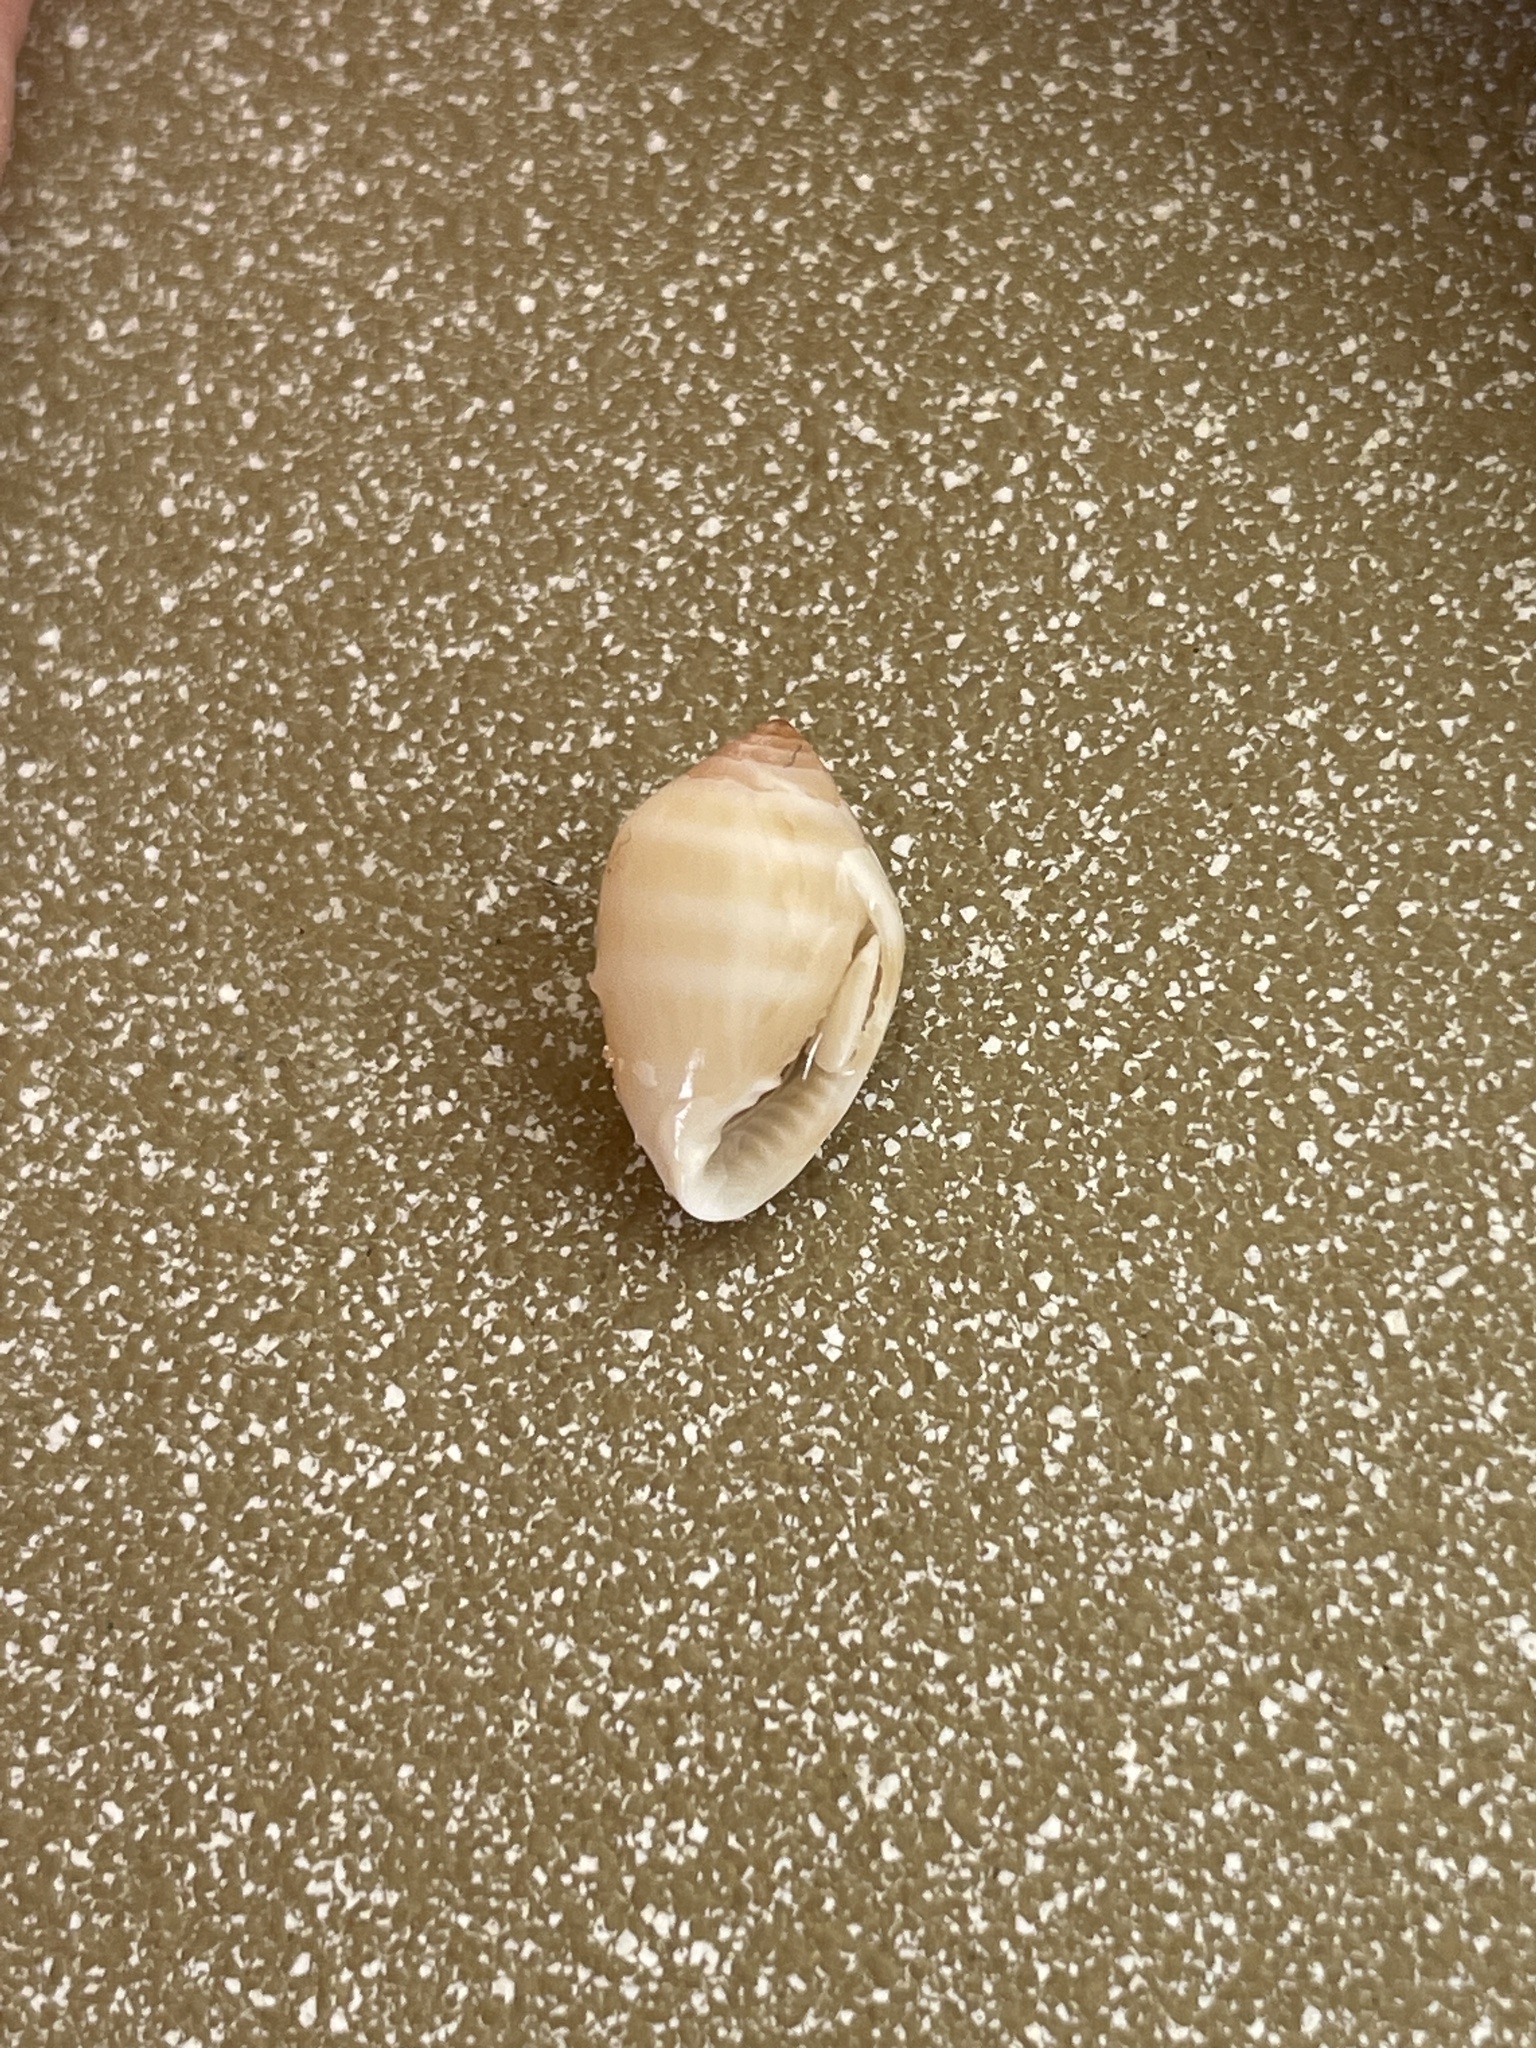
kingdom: Animalia
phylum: Mollusca
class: Gastropoda
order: Ellobiida
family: Ellobiidae
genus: Melampus
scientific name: Melampus coffea
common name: Coffee bean snail
